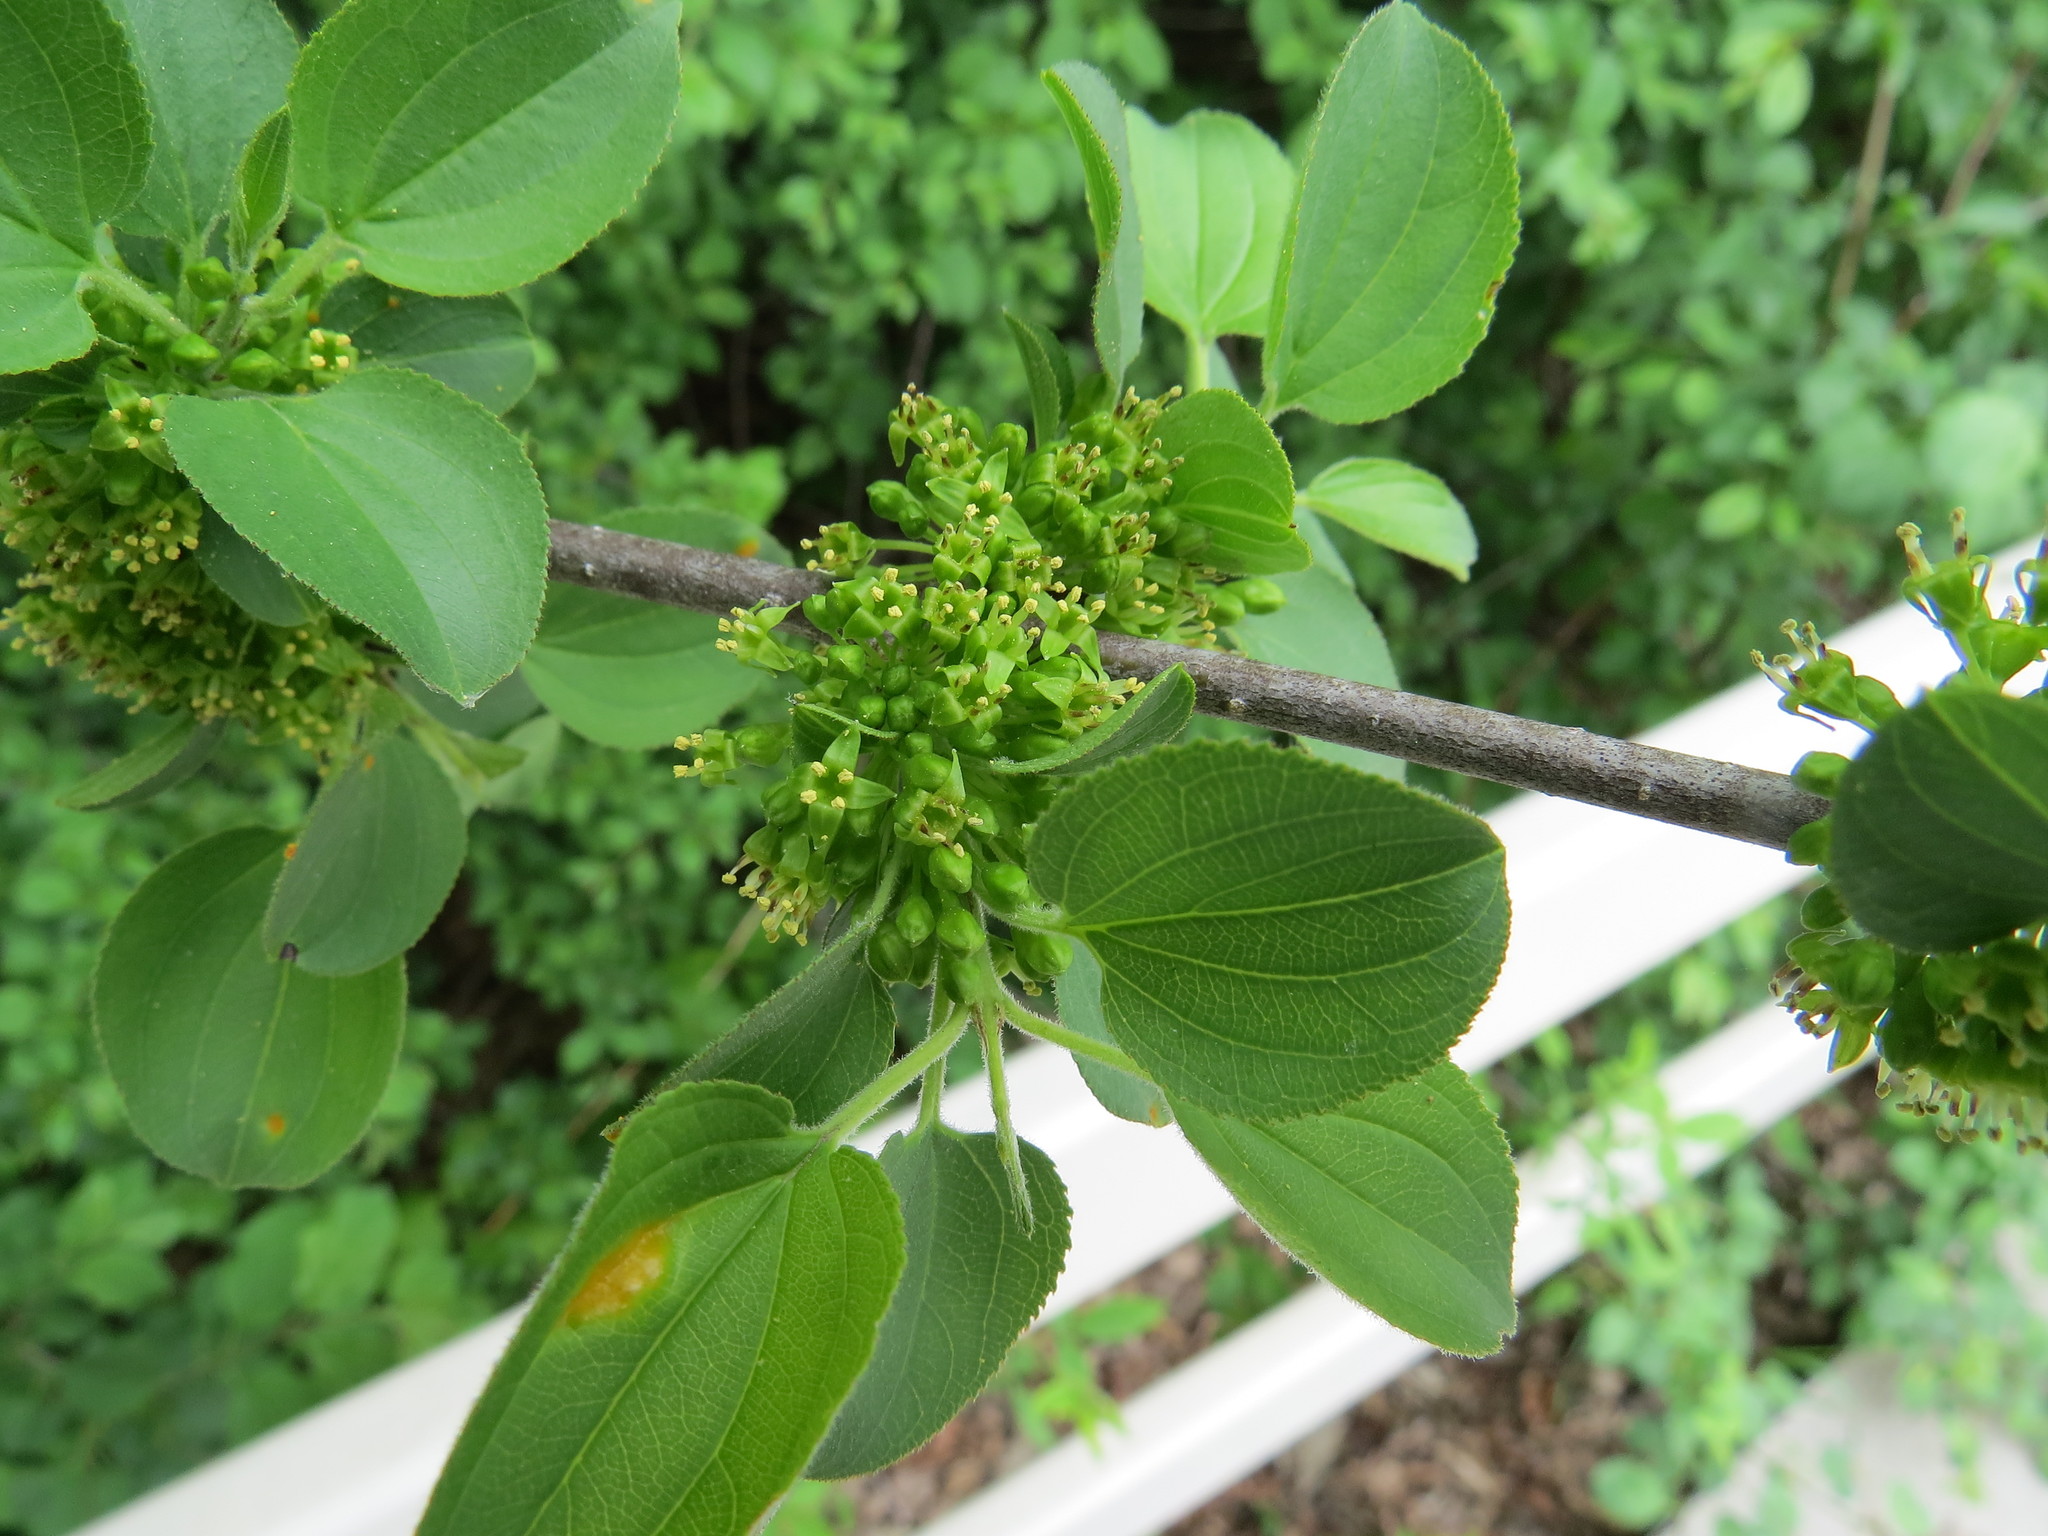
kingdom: Plantae
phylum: Tracheophyta
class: Magnoliopsida
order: Rosales
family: Rhamnaceae
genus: Rhamnus
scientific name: Rhamnus cathartica
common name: Common buckthorn
